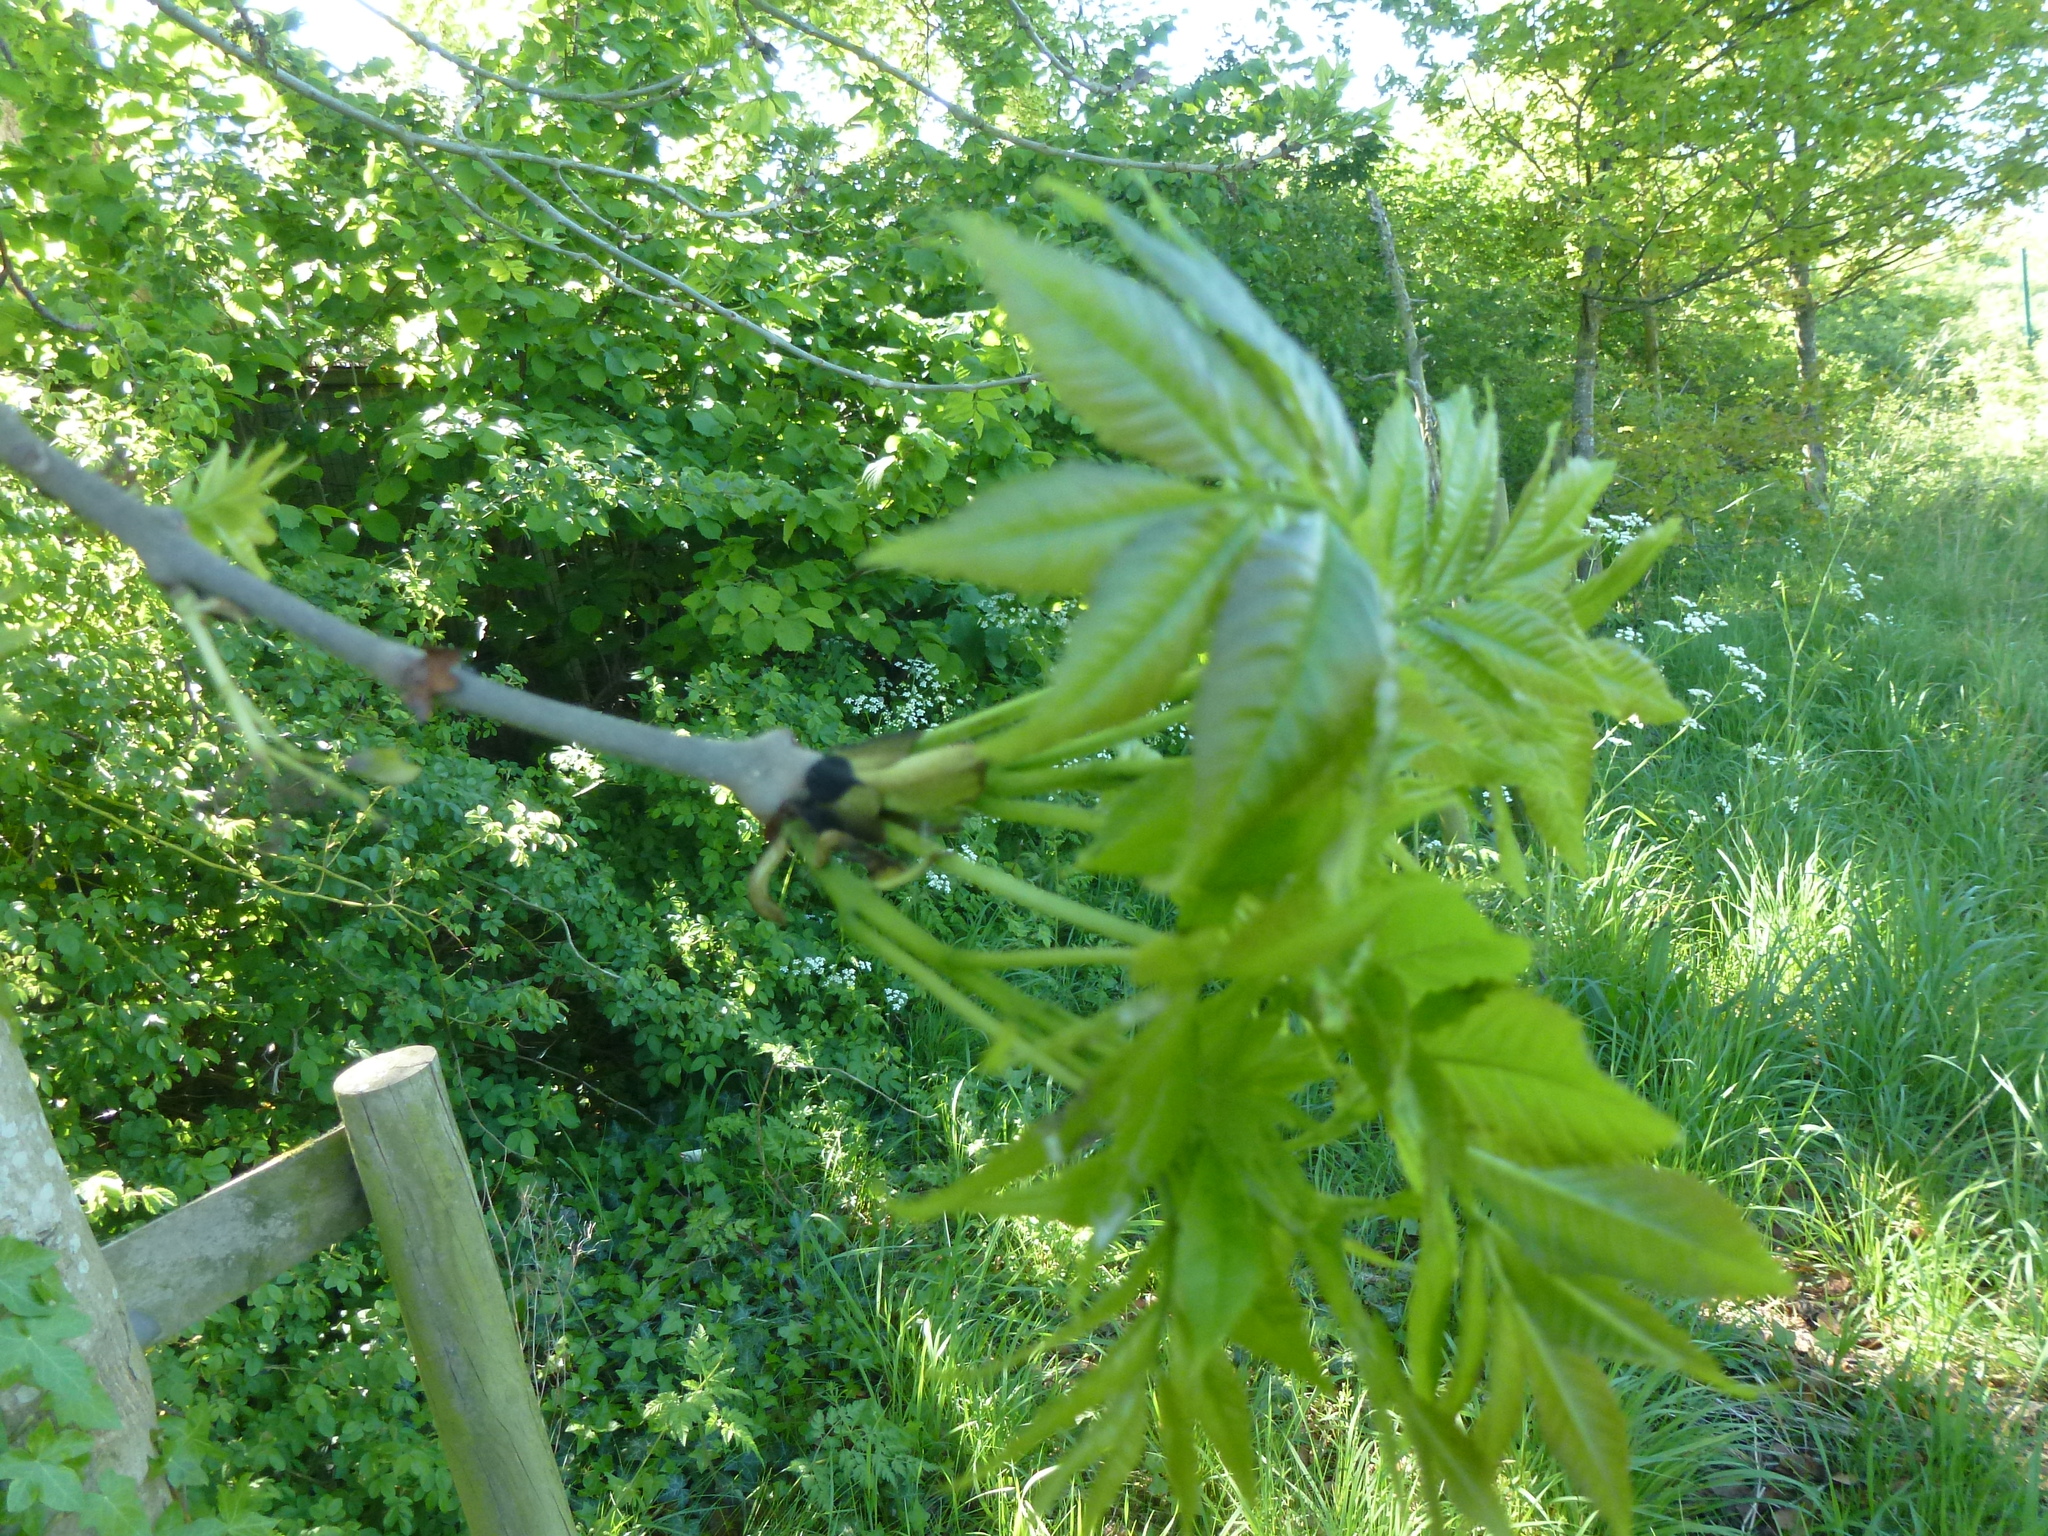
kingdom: Plantae
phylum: Tracheophyta
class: Magnoliopsida
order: Lamiales
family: Oleaceae
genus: Fraxinus
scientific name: Fraxinus excelsior
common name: European ash
